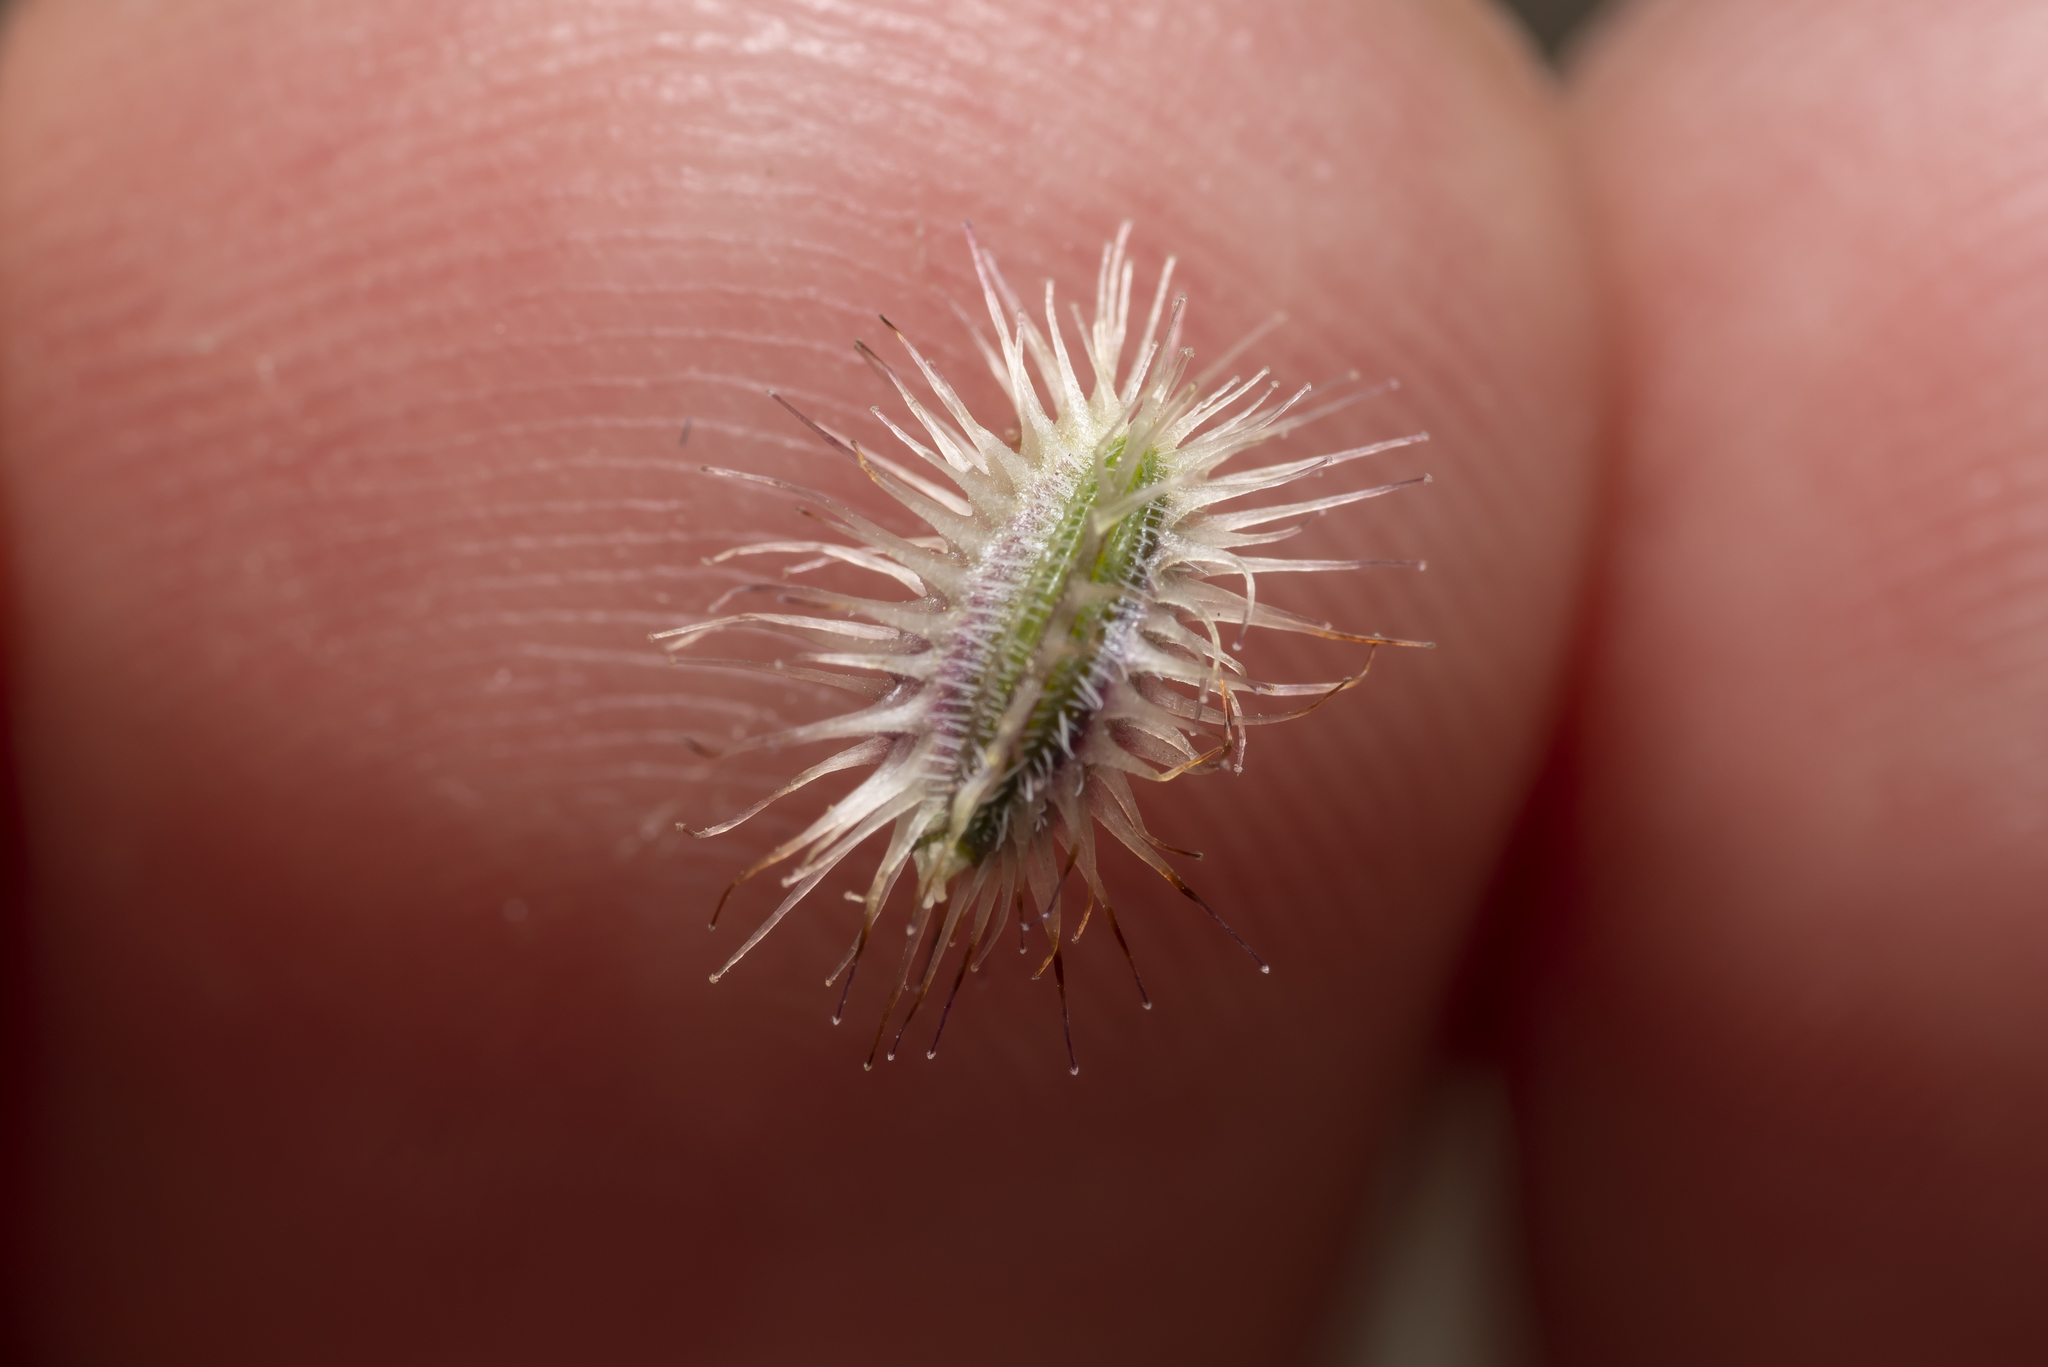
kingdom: Plantae
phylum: Tracheophyta
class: Magnoliopsida
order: Apiales
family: Apiaceae
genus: Daucus
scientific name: Daucus involucratus
